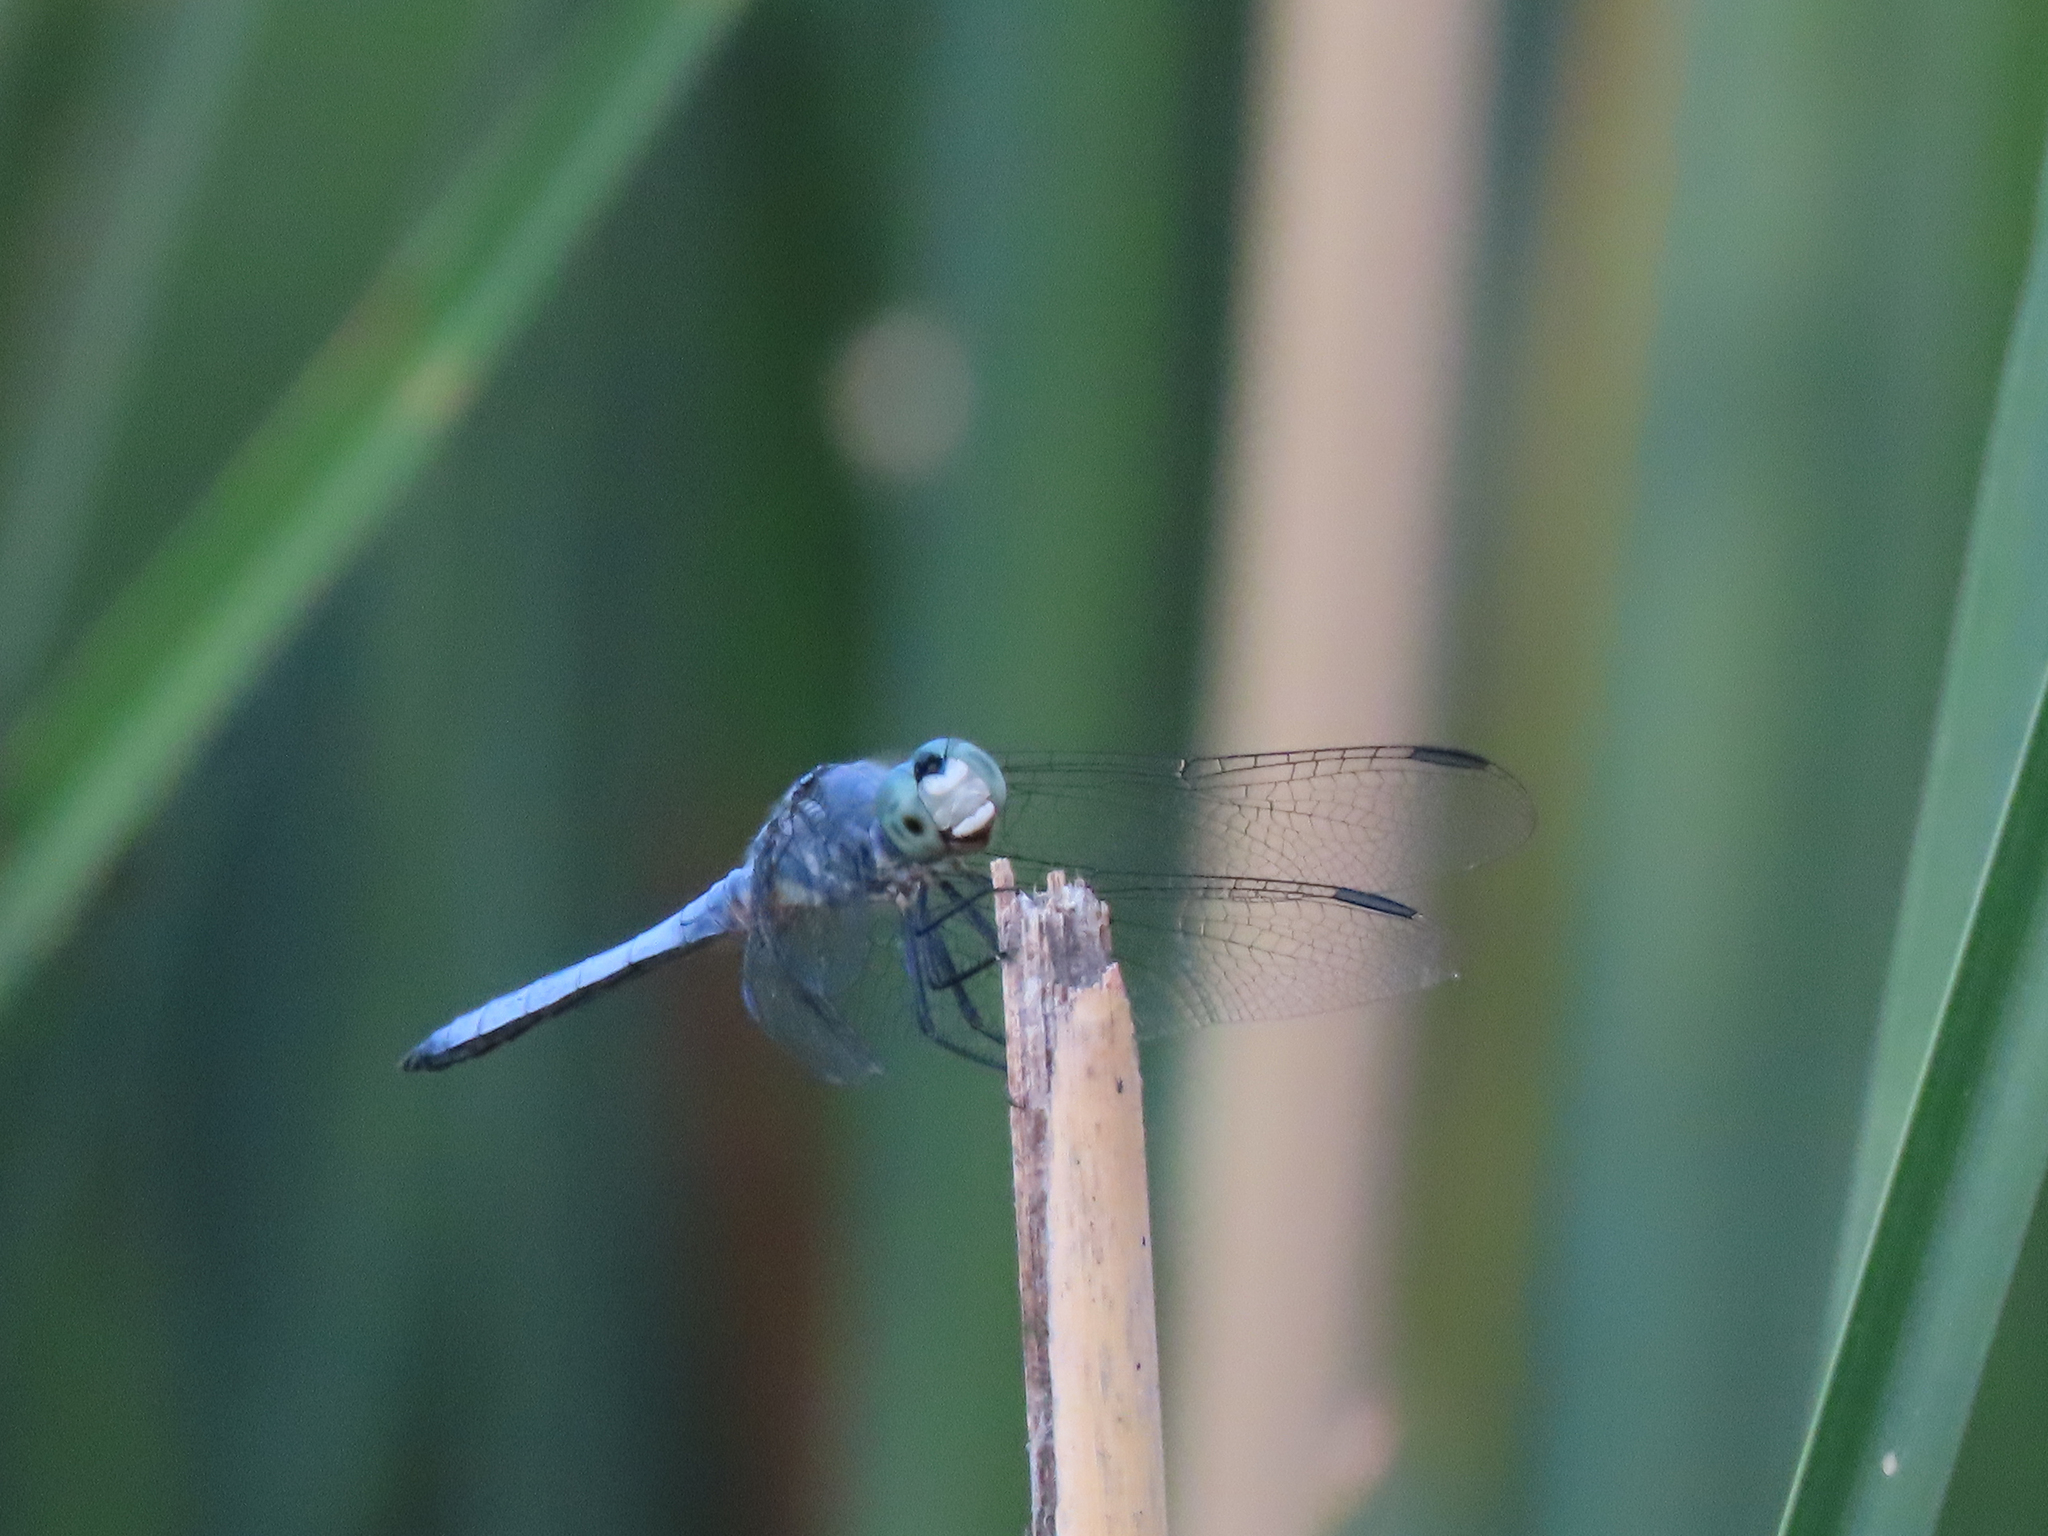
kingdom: Animalia
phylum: Arthropoda
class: Insecta
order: Odonata
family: Libellulidae
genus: Pachydiplax
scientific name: Pachydiplax longipennis
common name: Blue dasher
